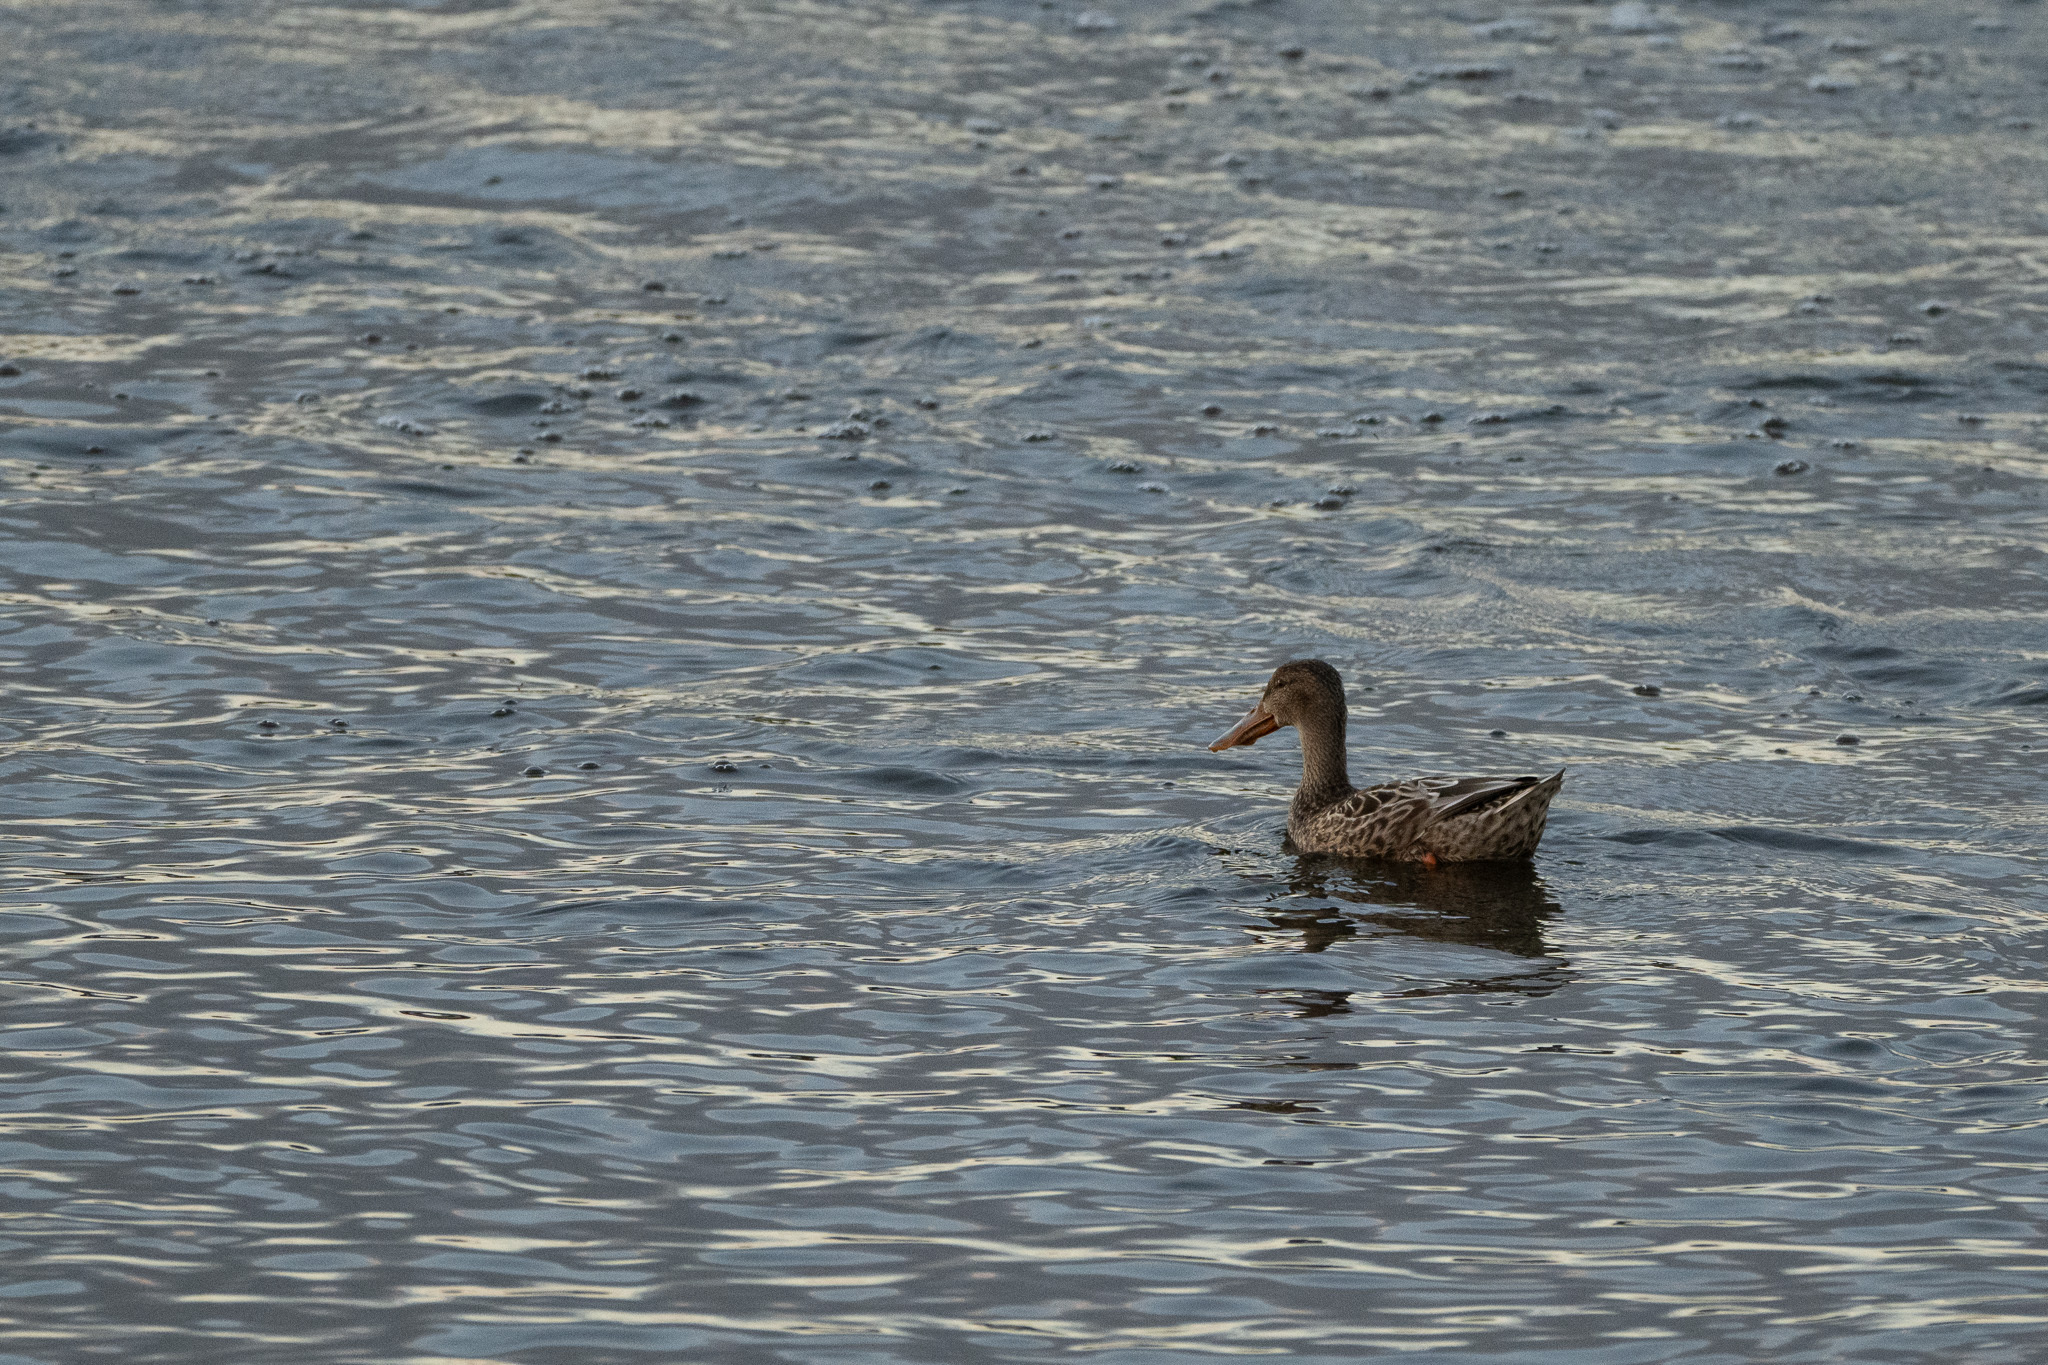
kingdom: Animalia
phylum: Chordata
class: Aves
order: Anseriformes
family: Anatidae
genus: Spatula
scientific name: Spatula clypeata
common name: Northern shoveler
